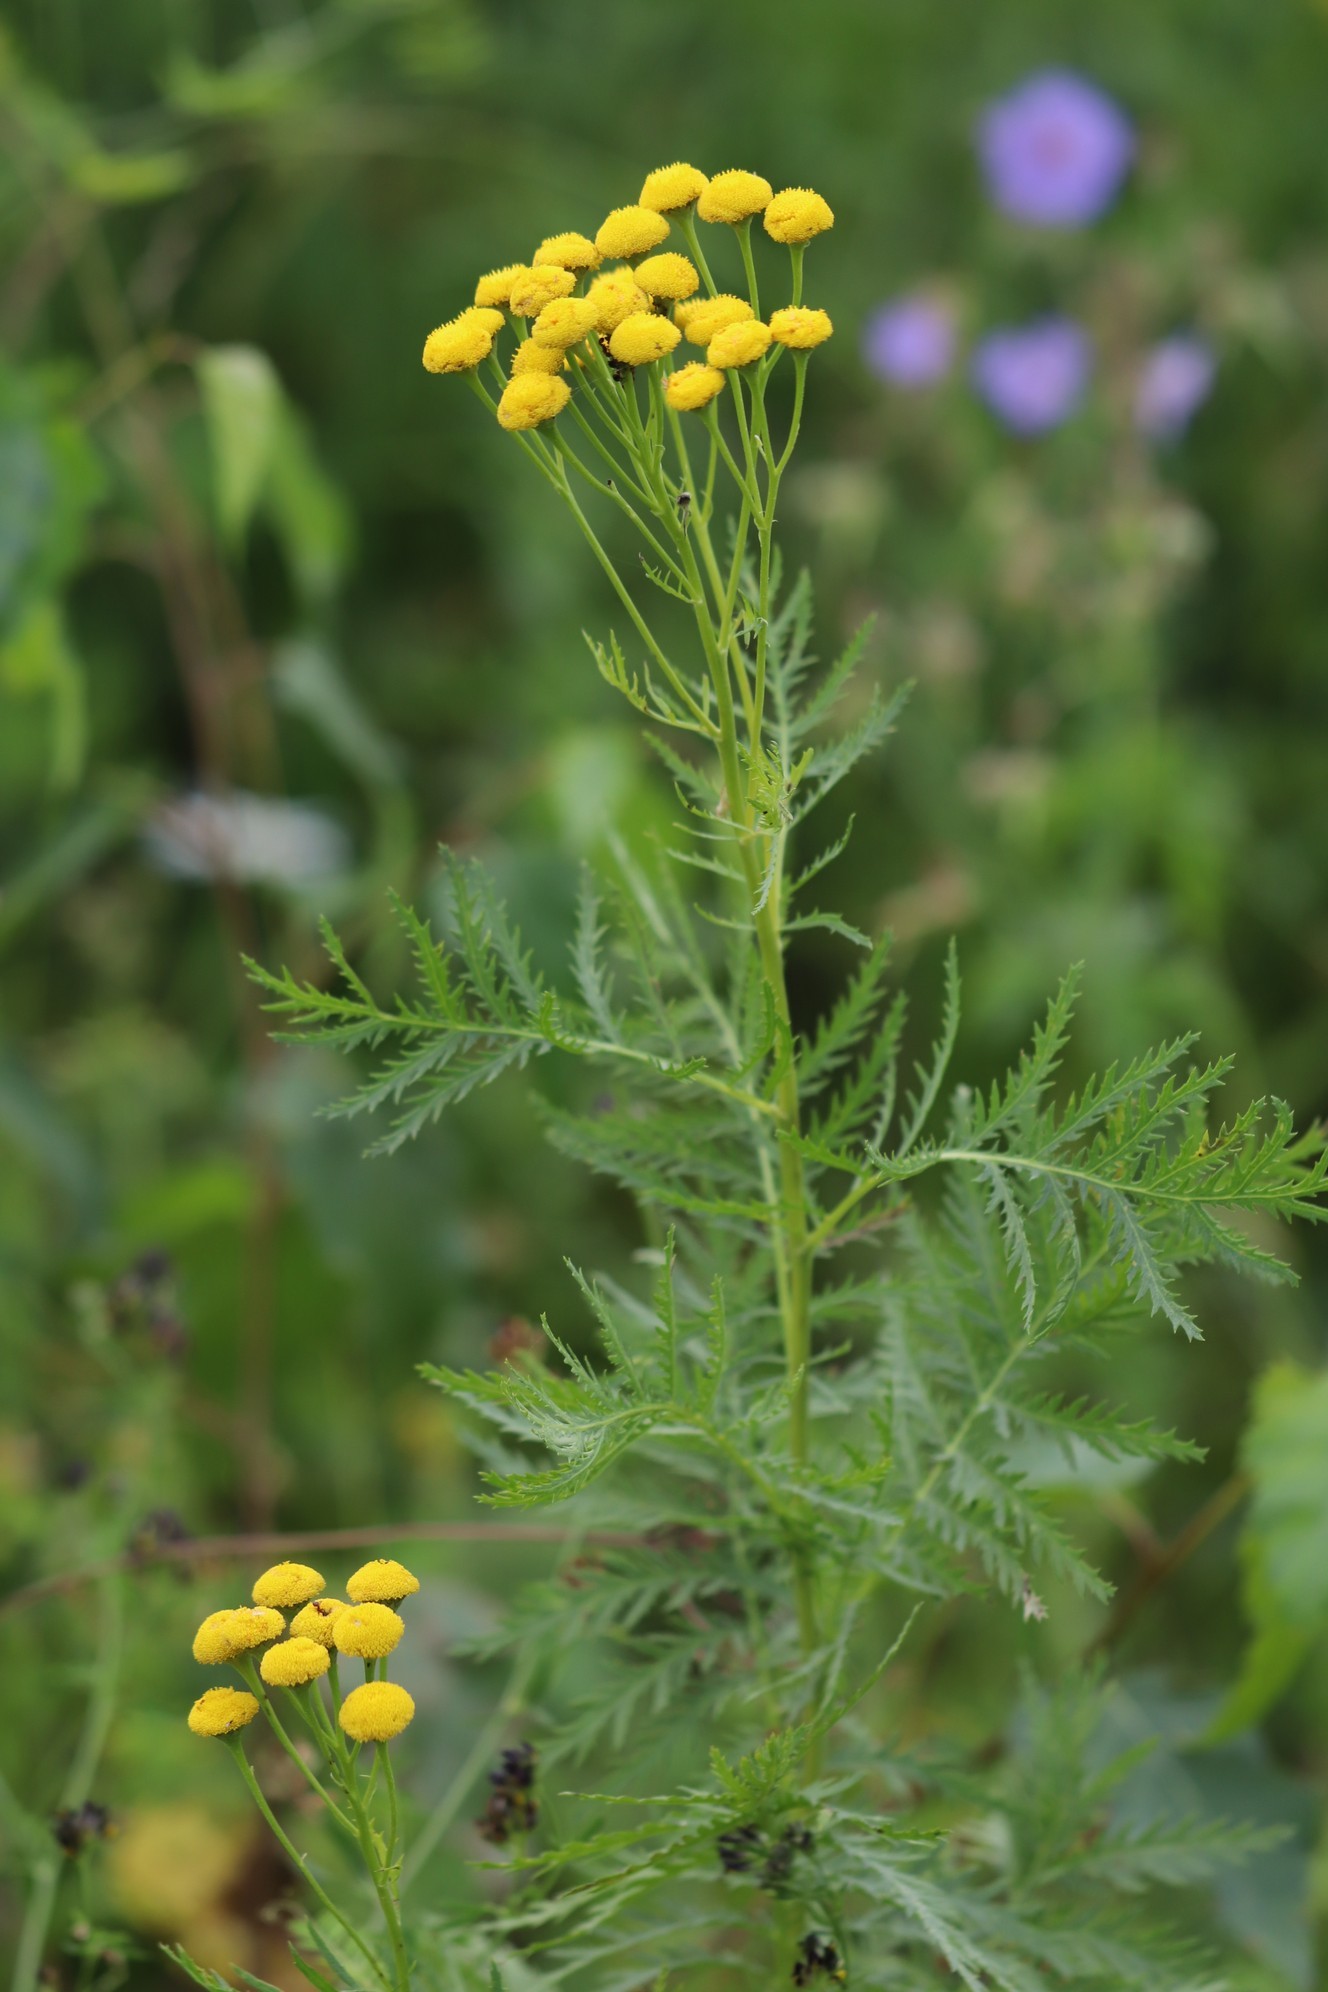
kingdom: Plantae
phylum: Tracheophyta
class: Magnoliopsida
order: Asterales
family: Asteraceae
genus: Tanacetum
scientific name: Tanacetum vulgare
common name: Common tansy
